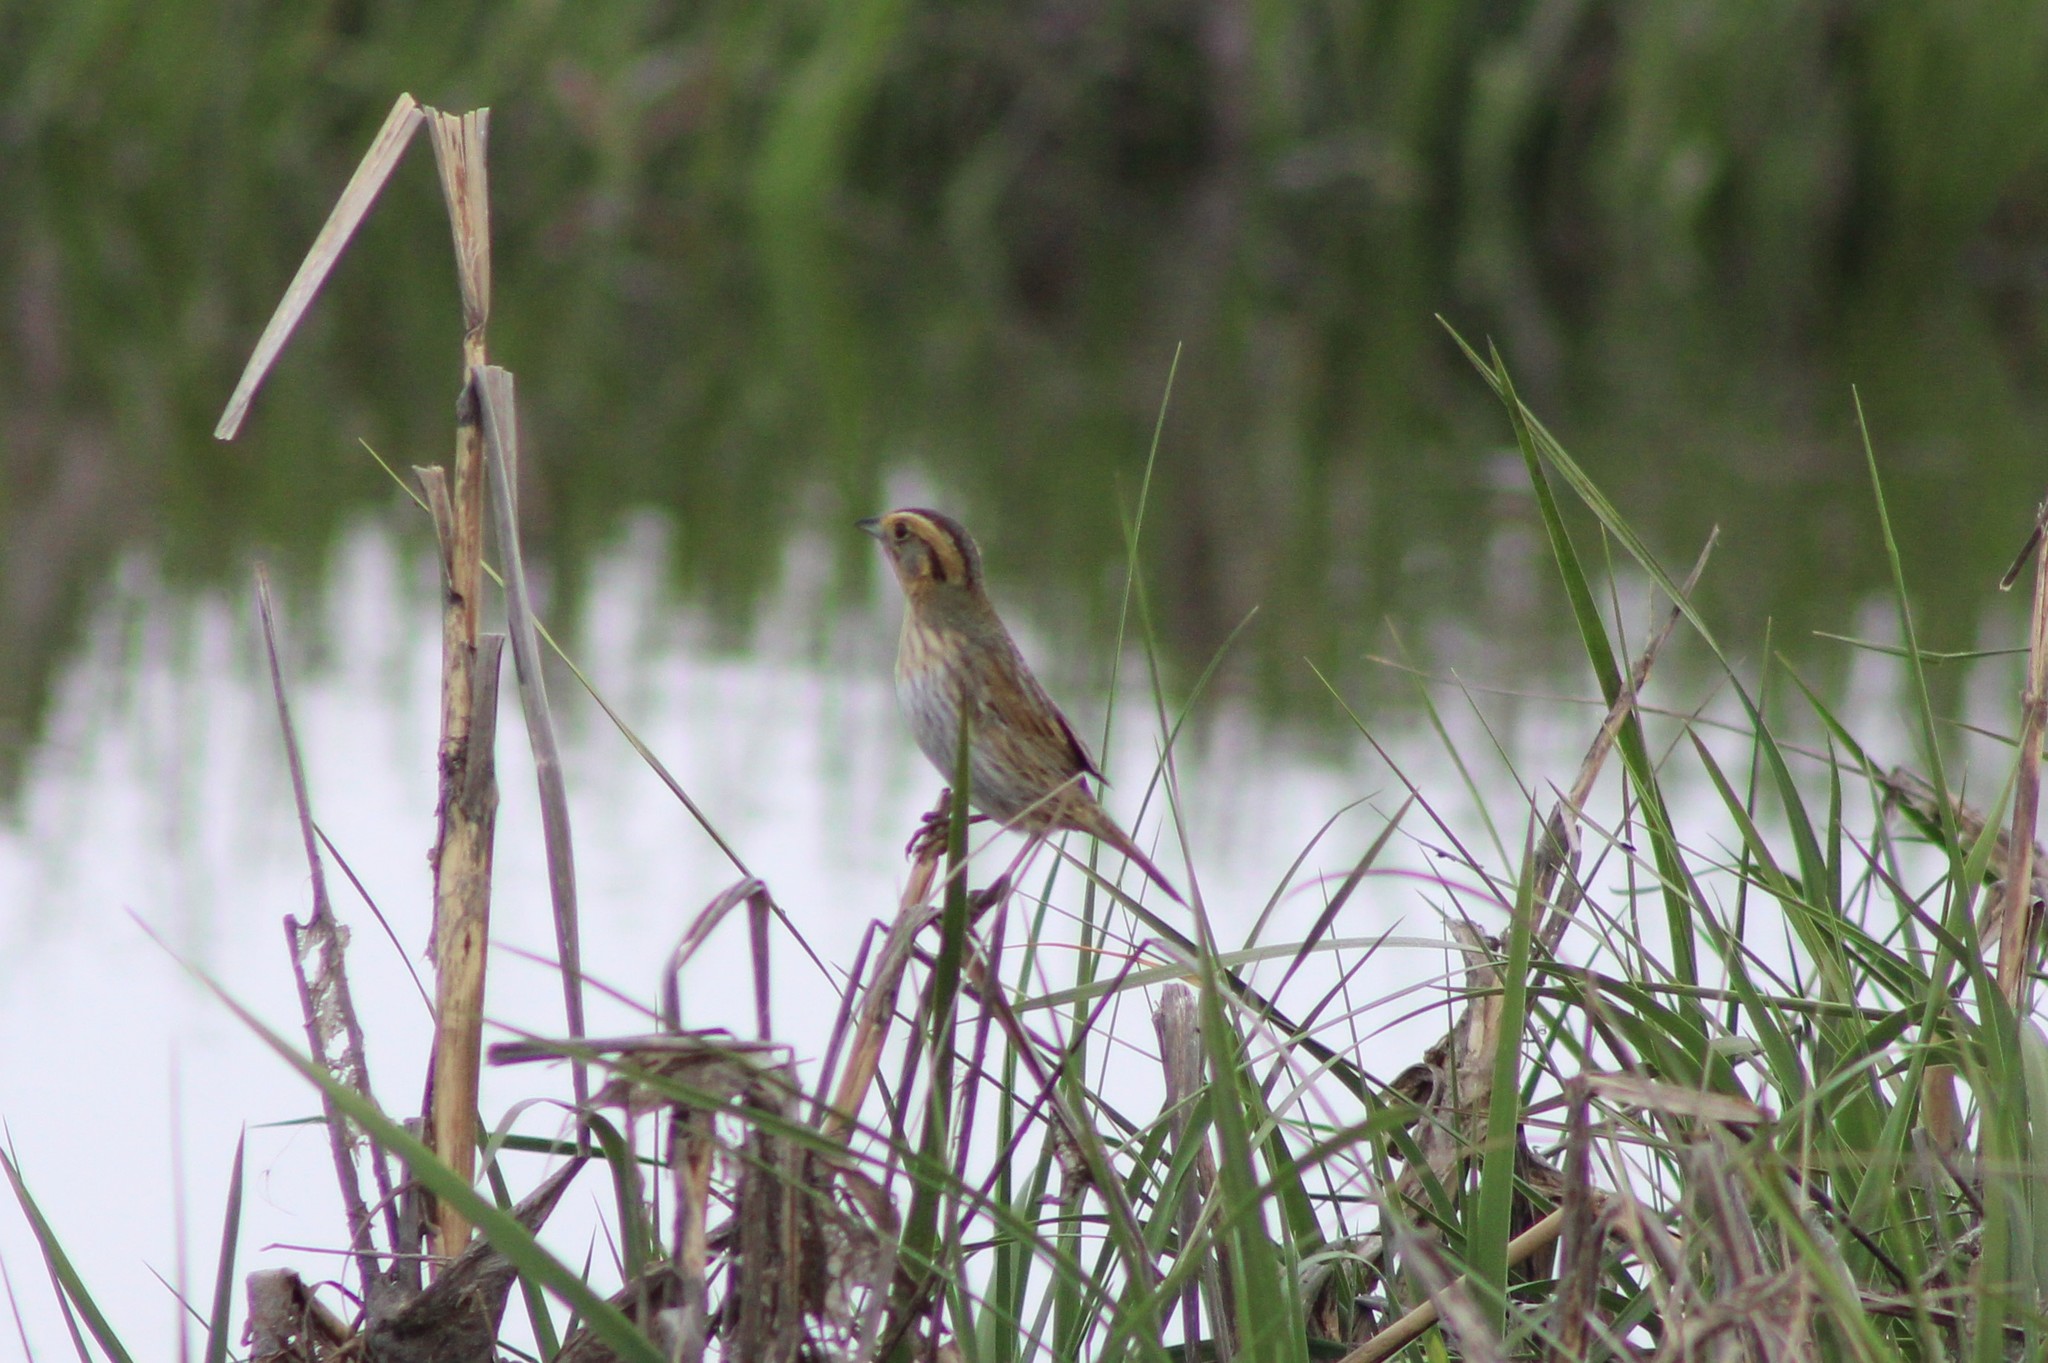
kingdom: Animalia
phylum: Chordata
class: Aves
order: Passeriformes
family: Passerellidae
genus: Ammospiza
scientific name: Ammospiza caudacuta
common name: Saltmarsh sparrow
